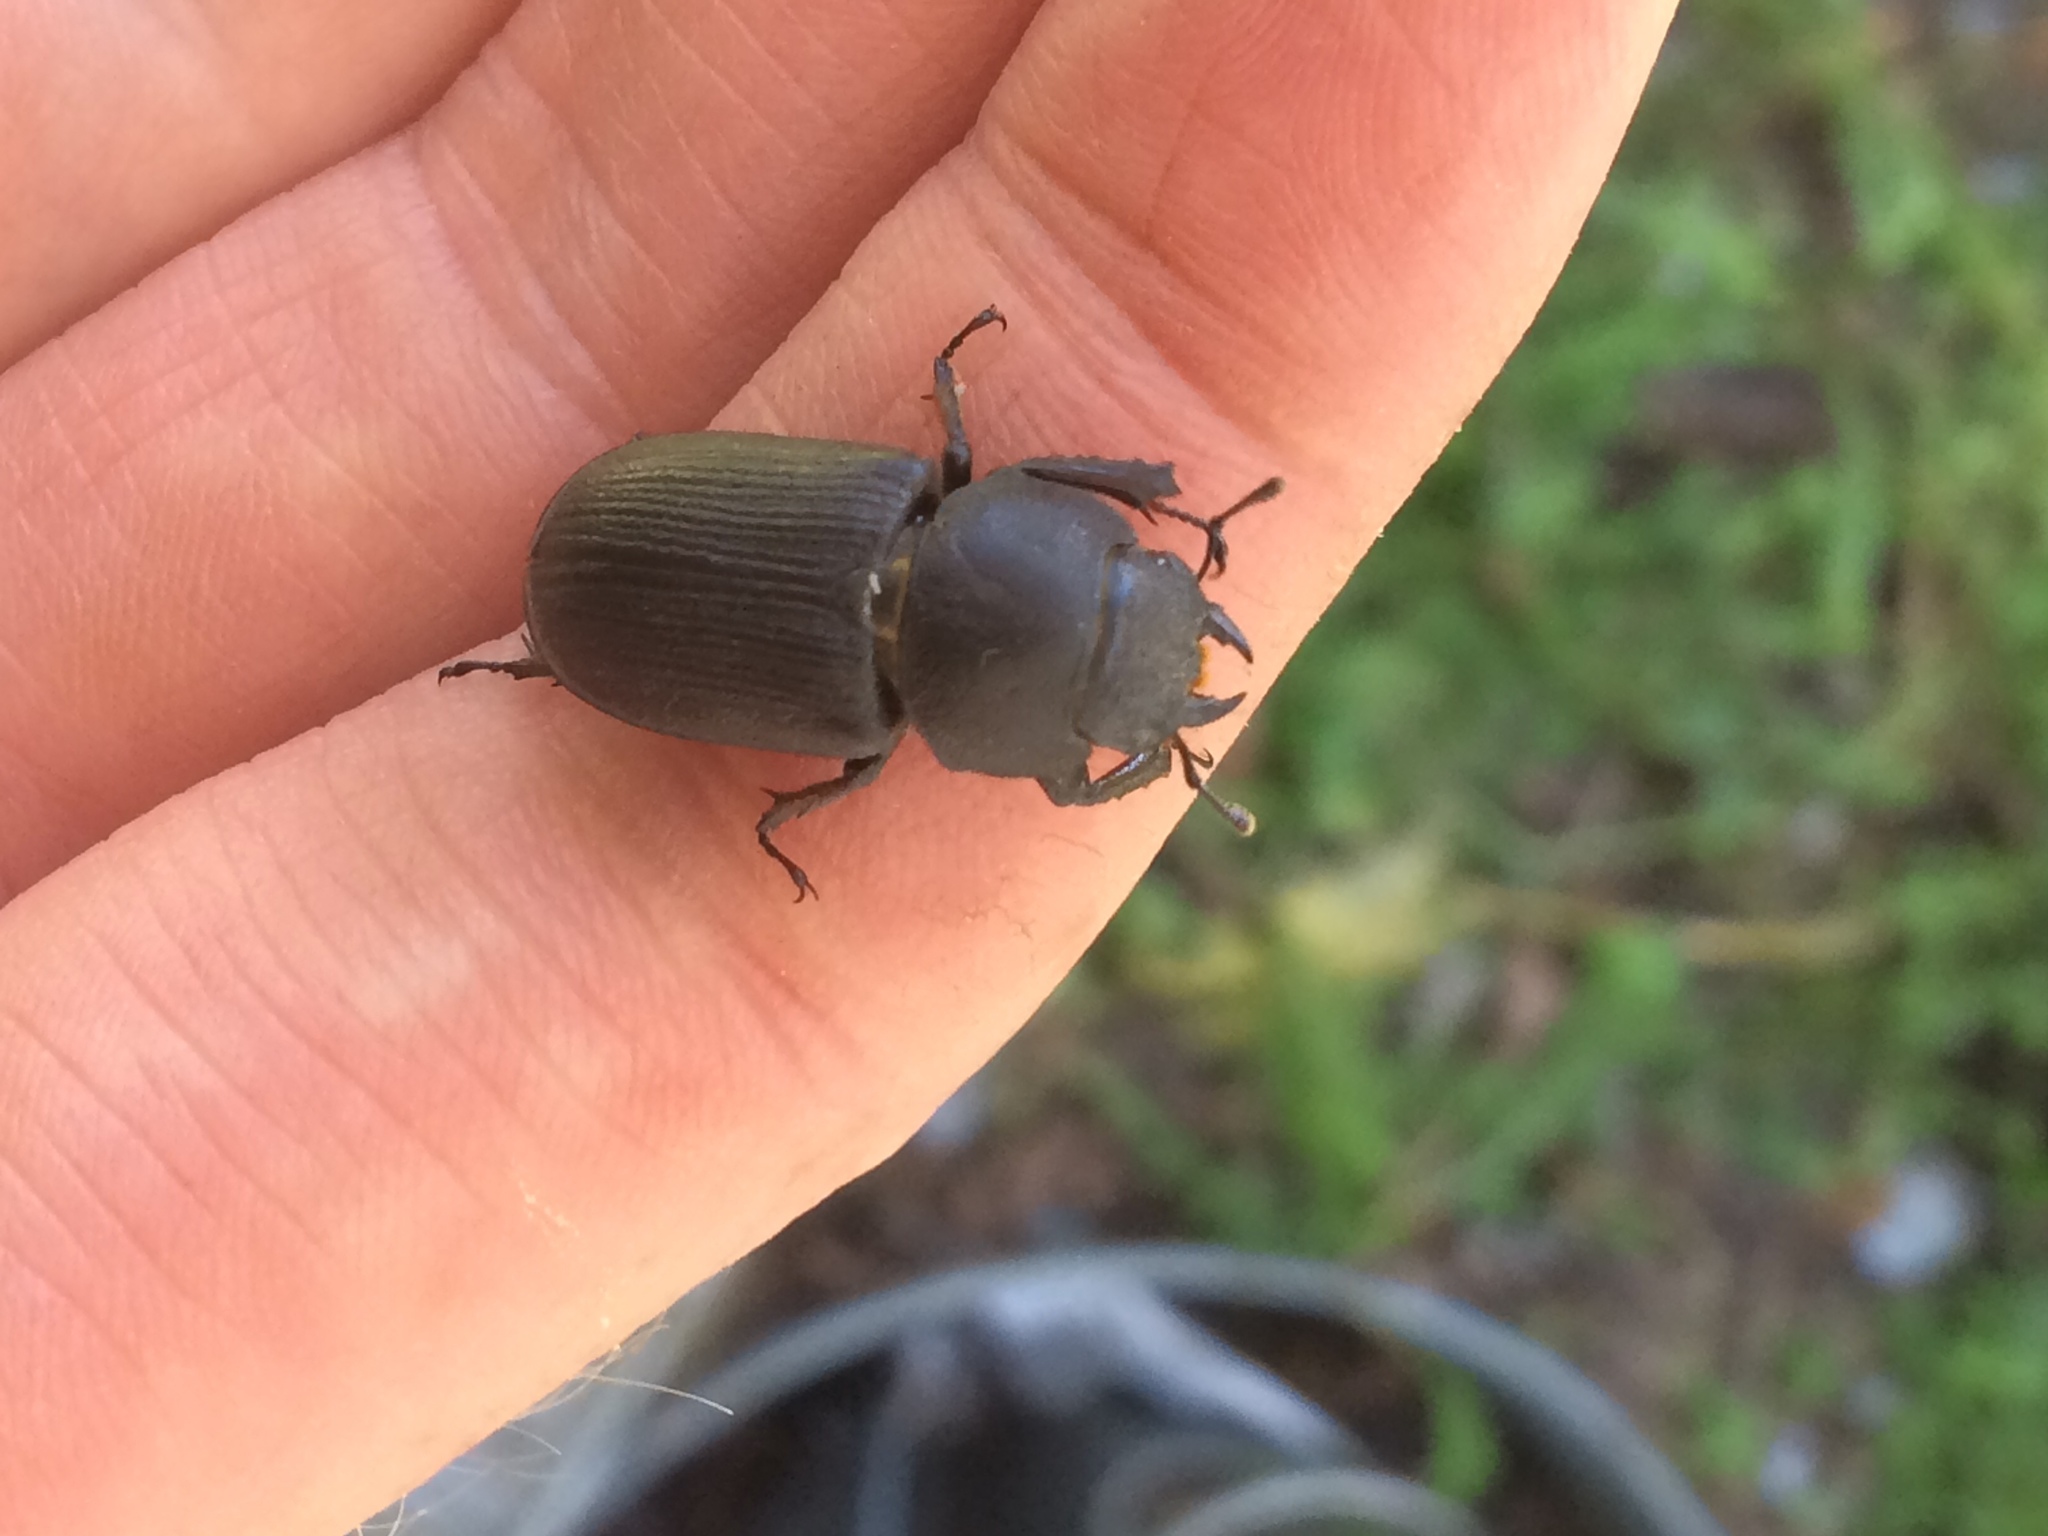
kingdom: Animalia
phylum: Arthropoda
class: Insecta
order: Coleoptera
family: Lucanidae
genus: Dorcus
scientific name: Dorcus parallelus
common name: Antelope beetle
